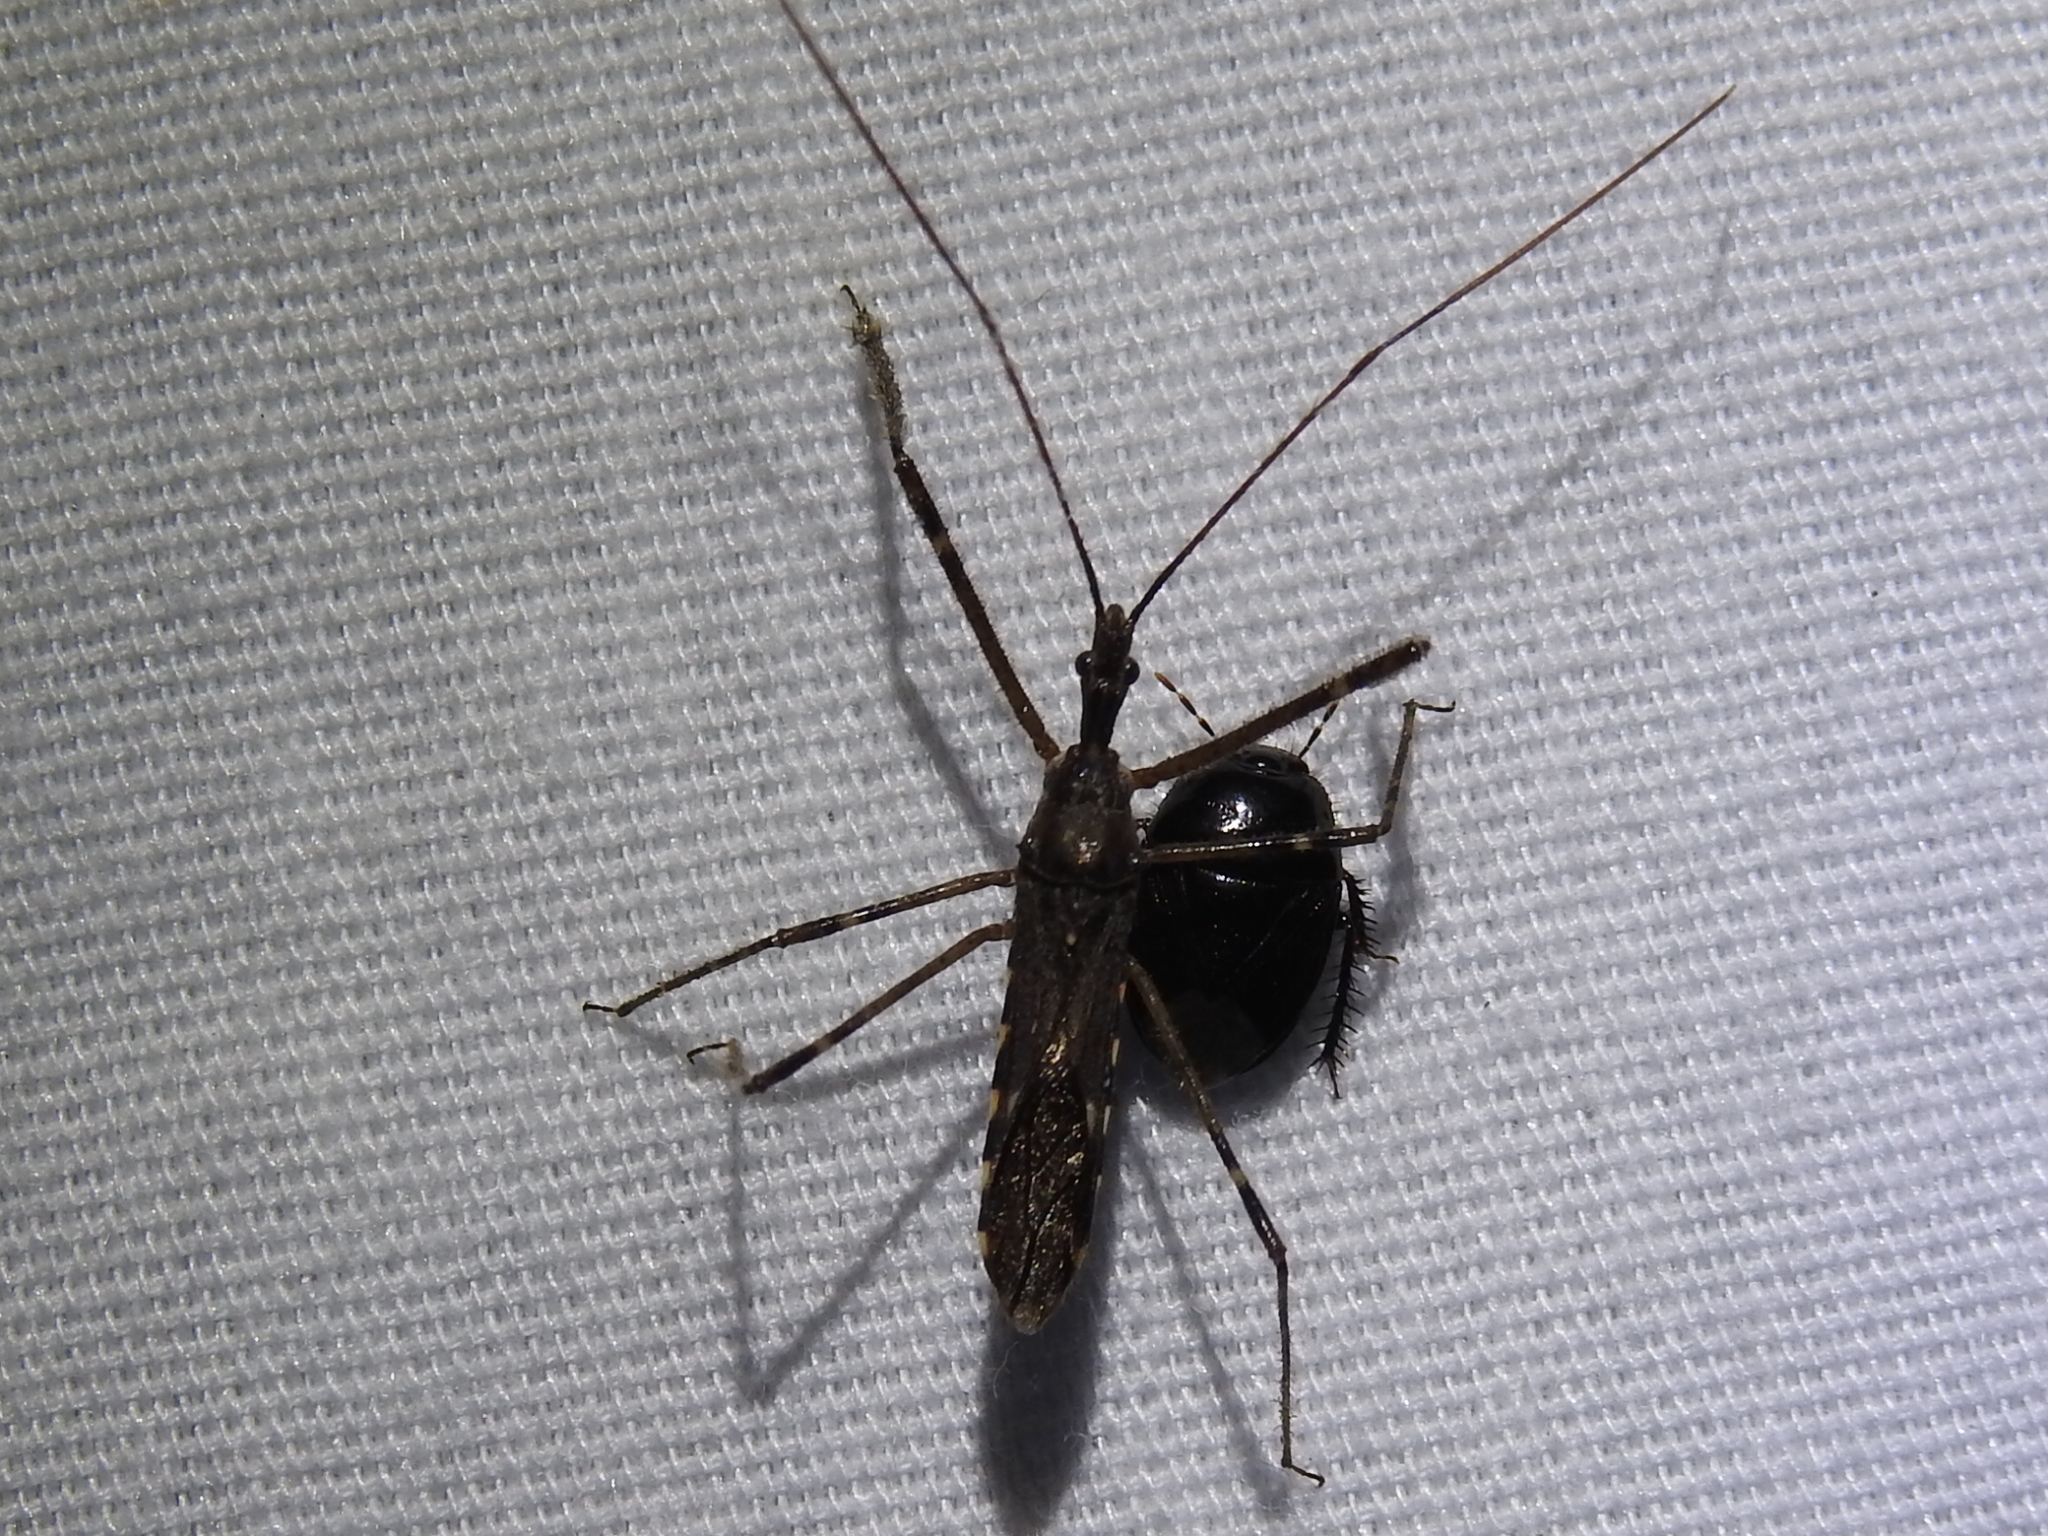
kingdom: Animalia
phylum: Arthropoda
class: Insecta
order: Hemiptera
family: Reduviidae
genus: Zelus
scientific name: Zelus tetracanthus
